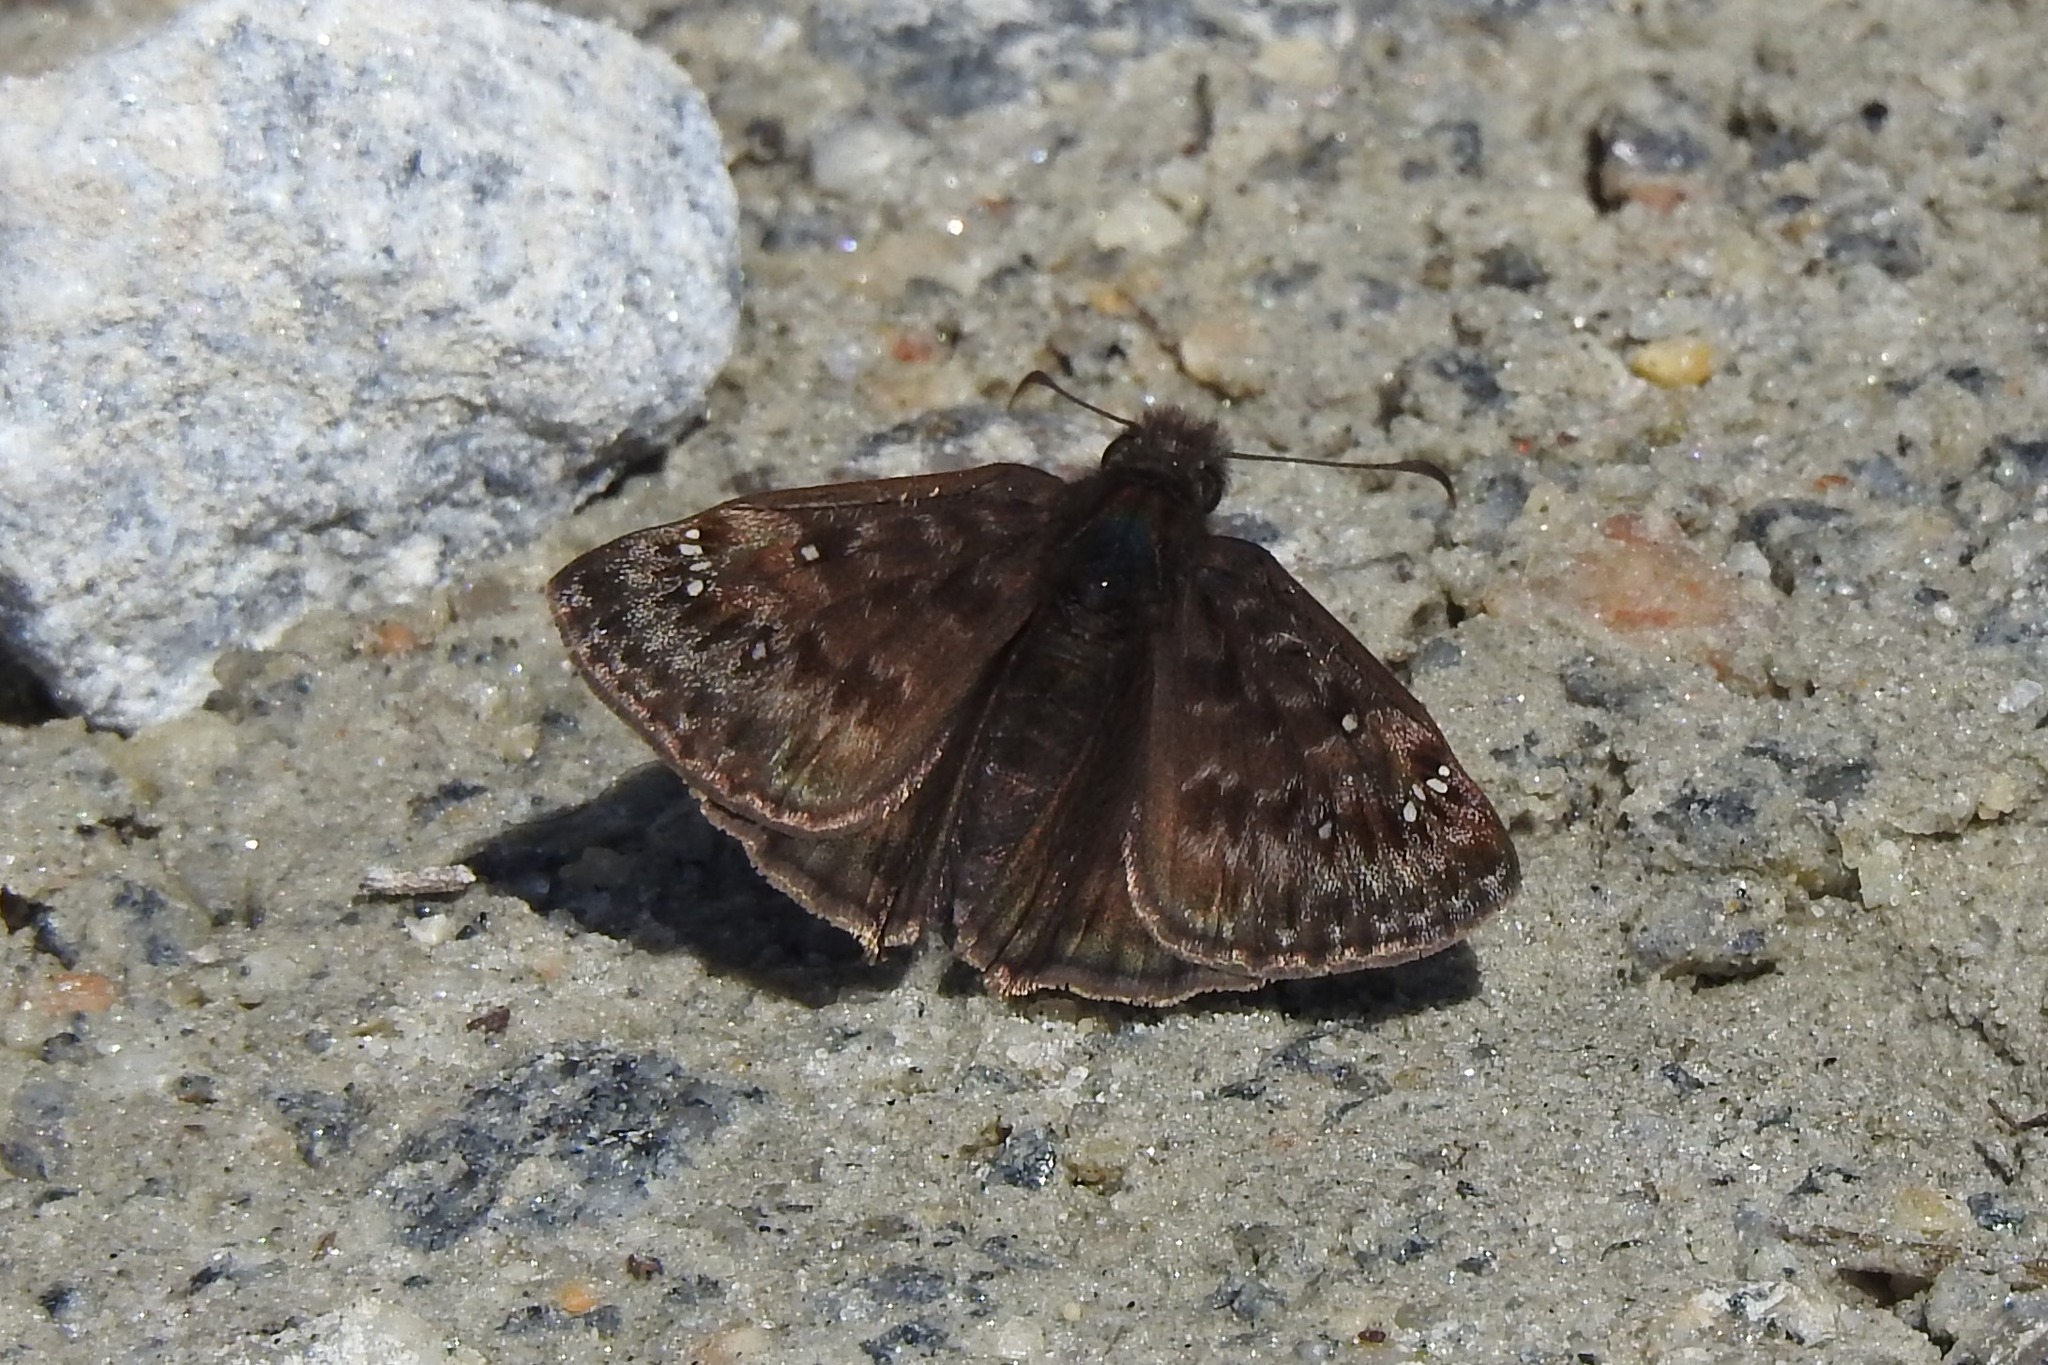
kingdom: Animalia
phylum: Arthropoda
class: Insecta
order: Lepidoptera
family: Hesperiidae
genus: Erynnis
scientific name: Erynnis juvenalis
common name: Juvenal's duskywing
